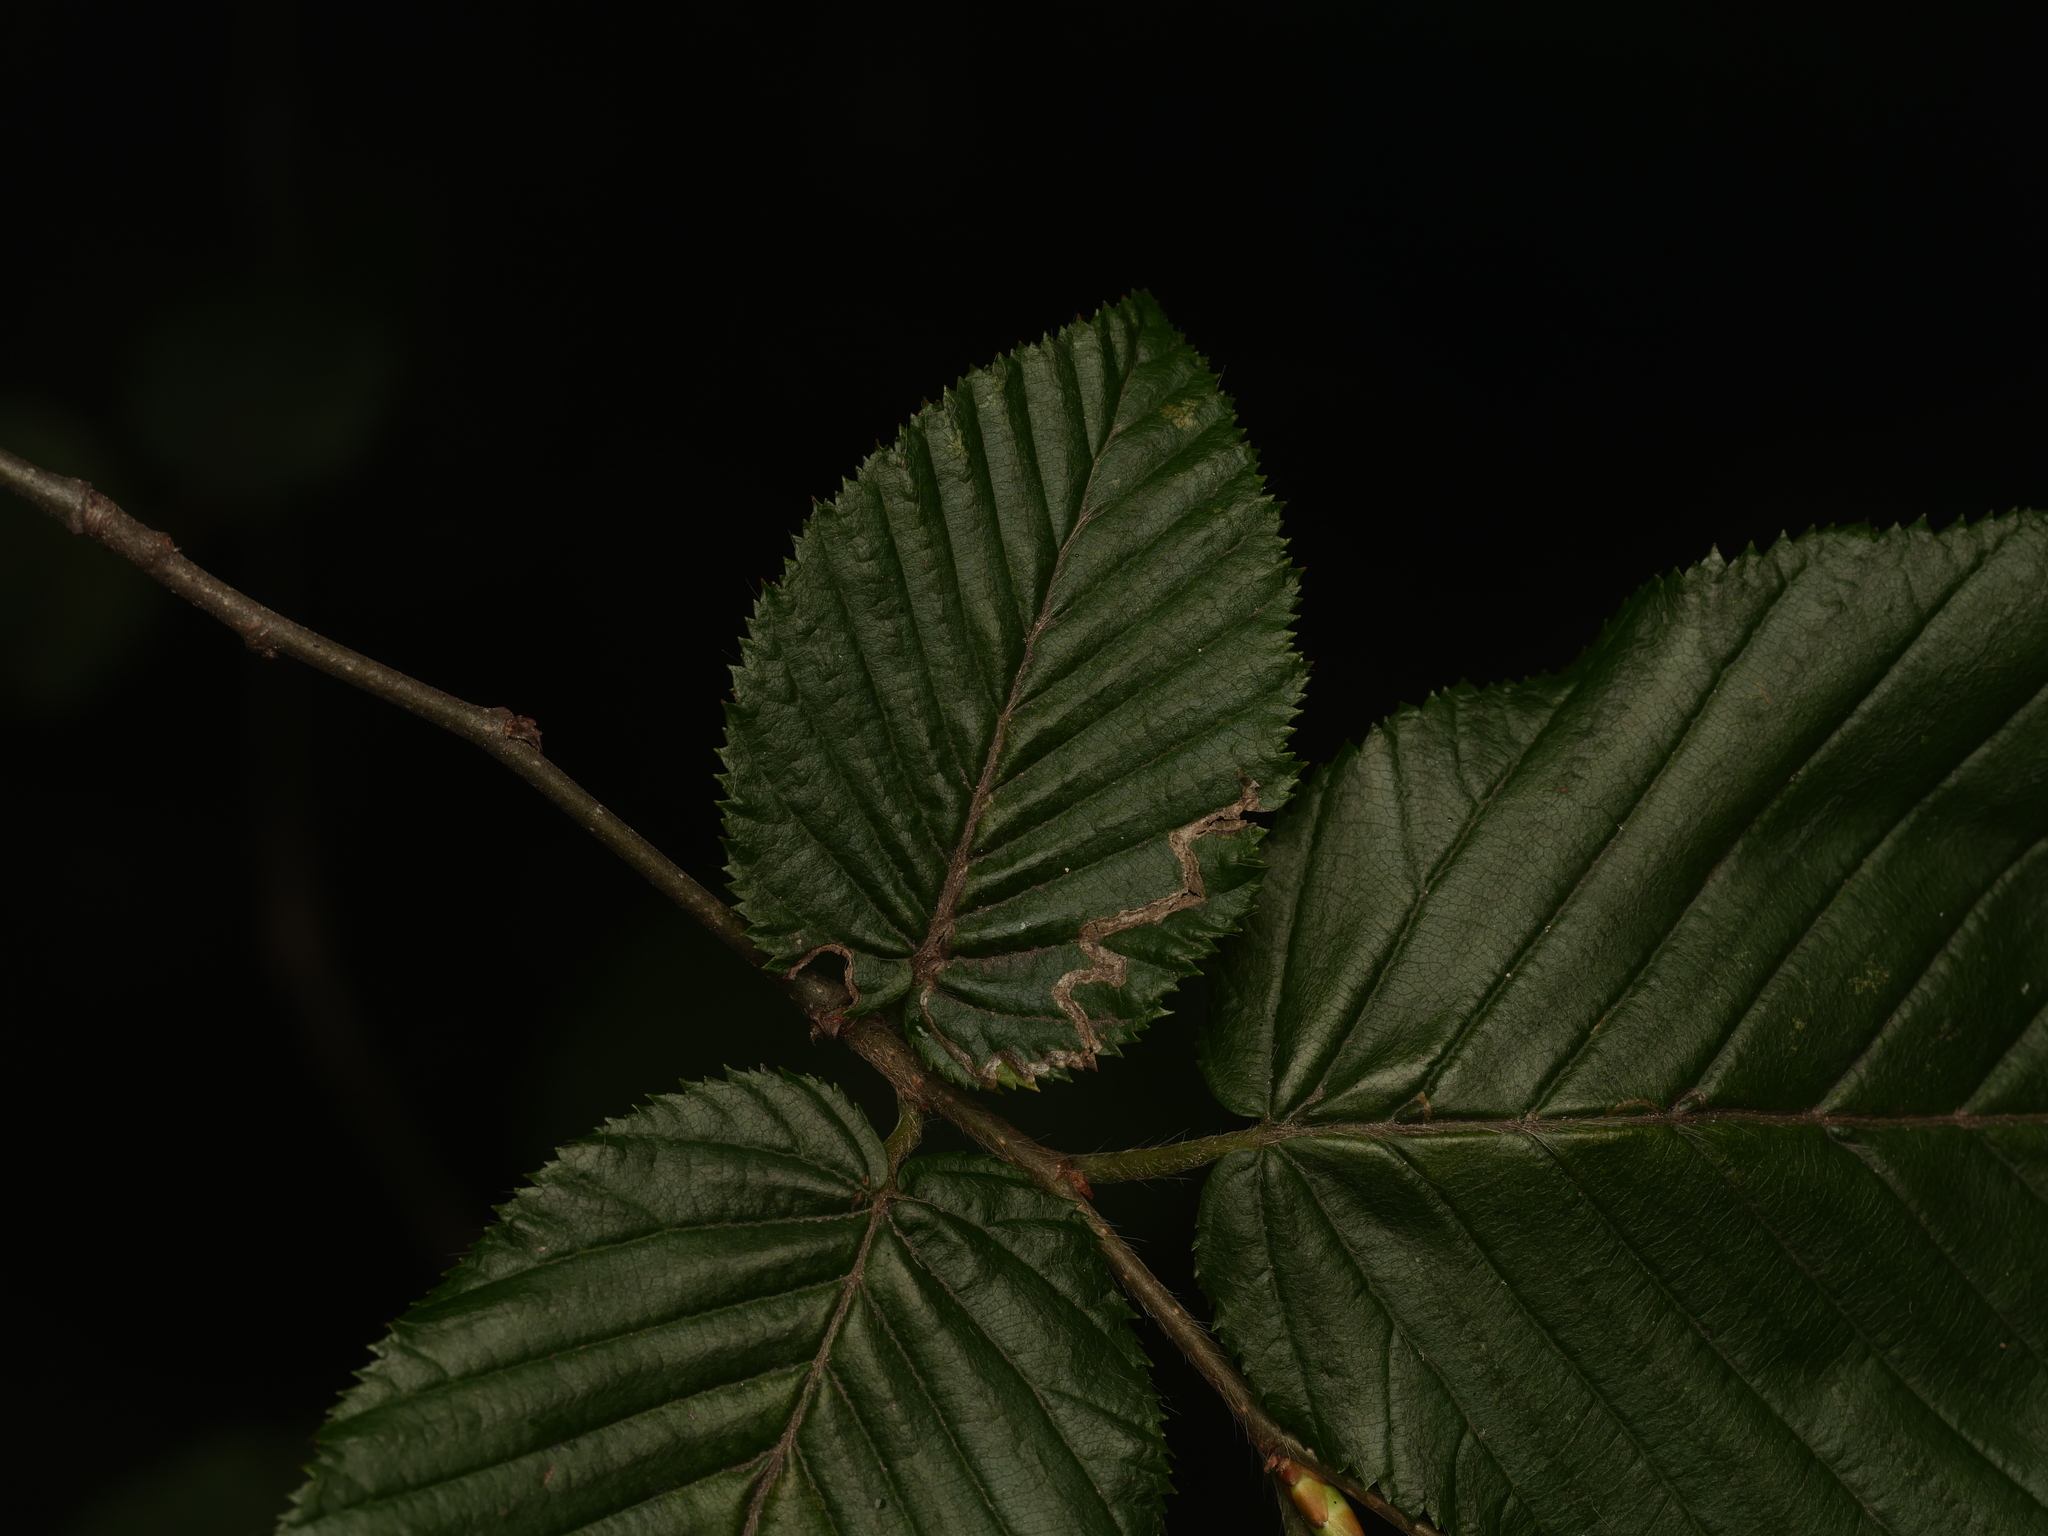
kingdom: Plantae
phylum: Tracheophyta
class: Magnoliopsida
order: Fagales
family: Betulaceae
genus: Carpinus
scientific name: Carpinus betulus
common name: Hornbeam
